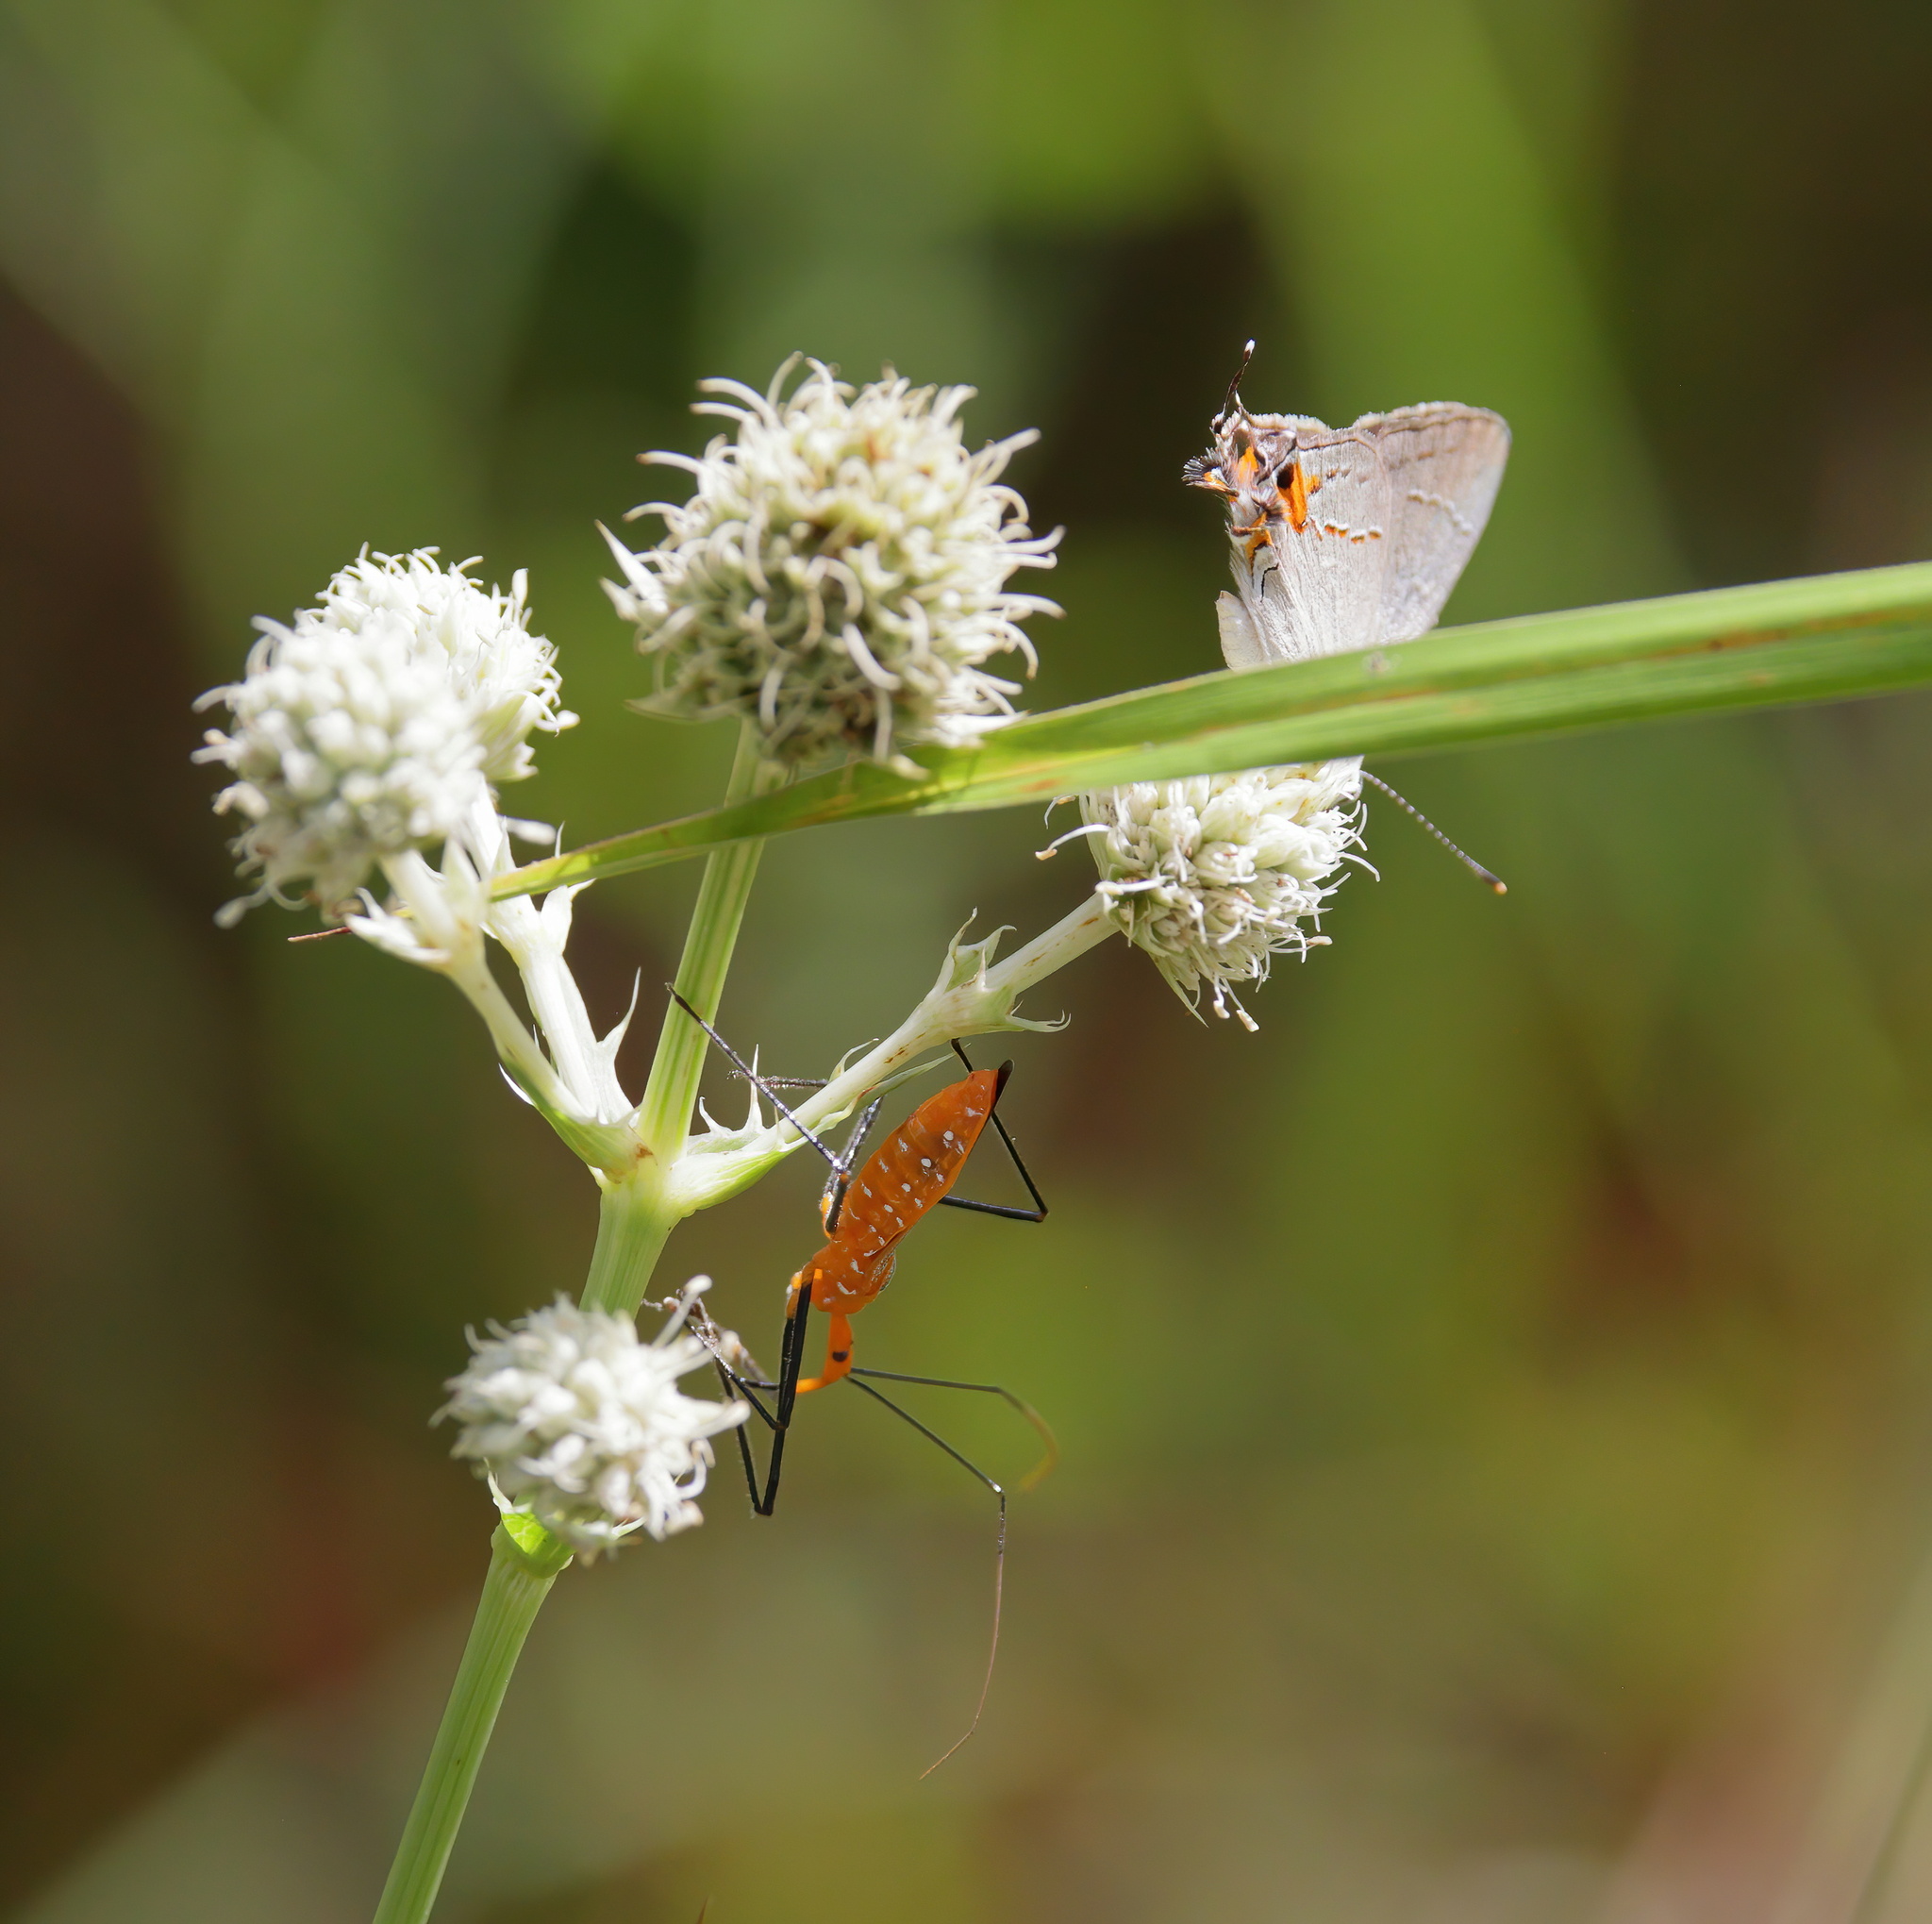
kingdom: Animalia
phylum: Arthropoda
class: Insecta
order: Lepidoptera
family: Lycaenidae
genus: Strymon
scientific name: Strymon melinus
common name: Gray hairstreak
